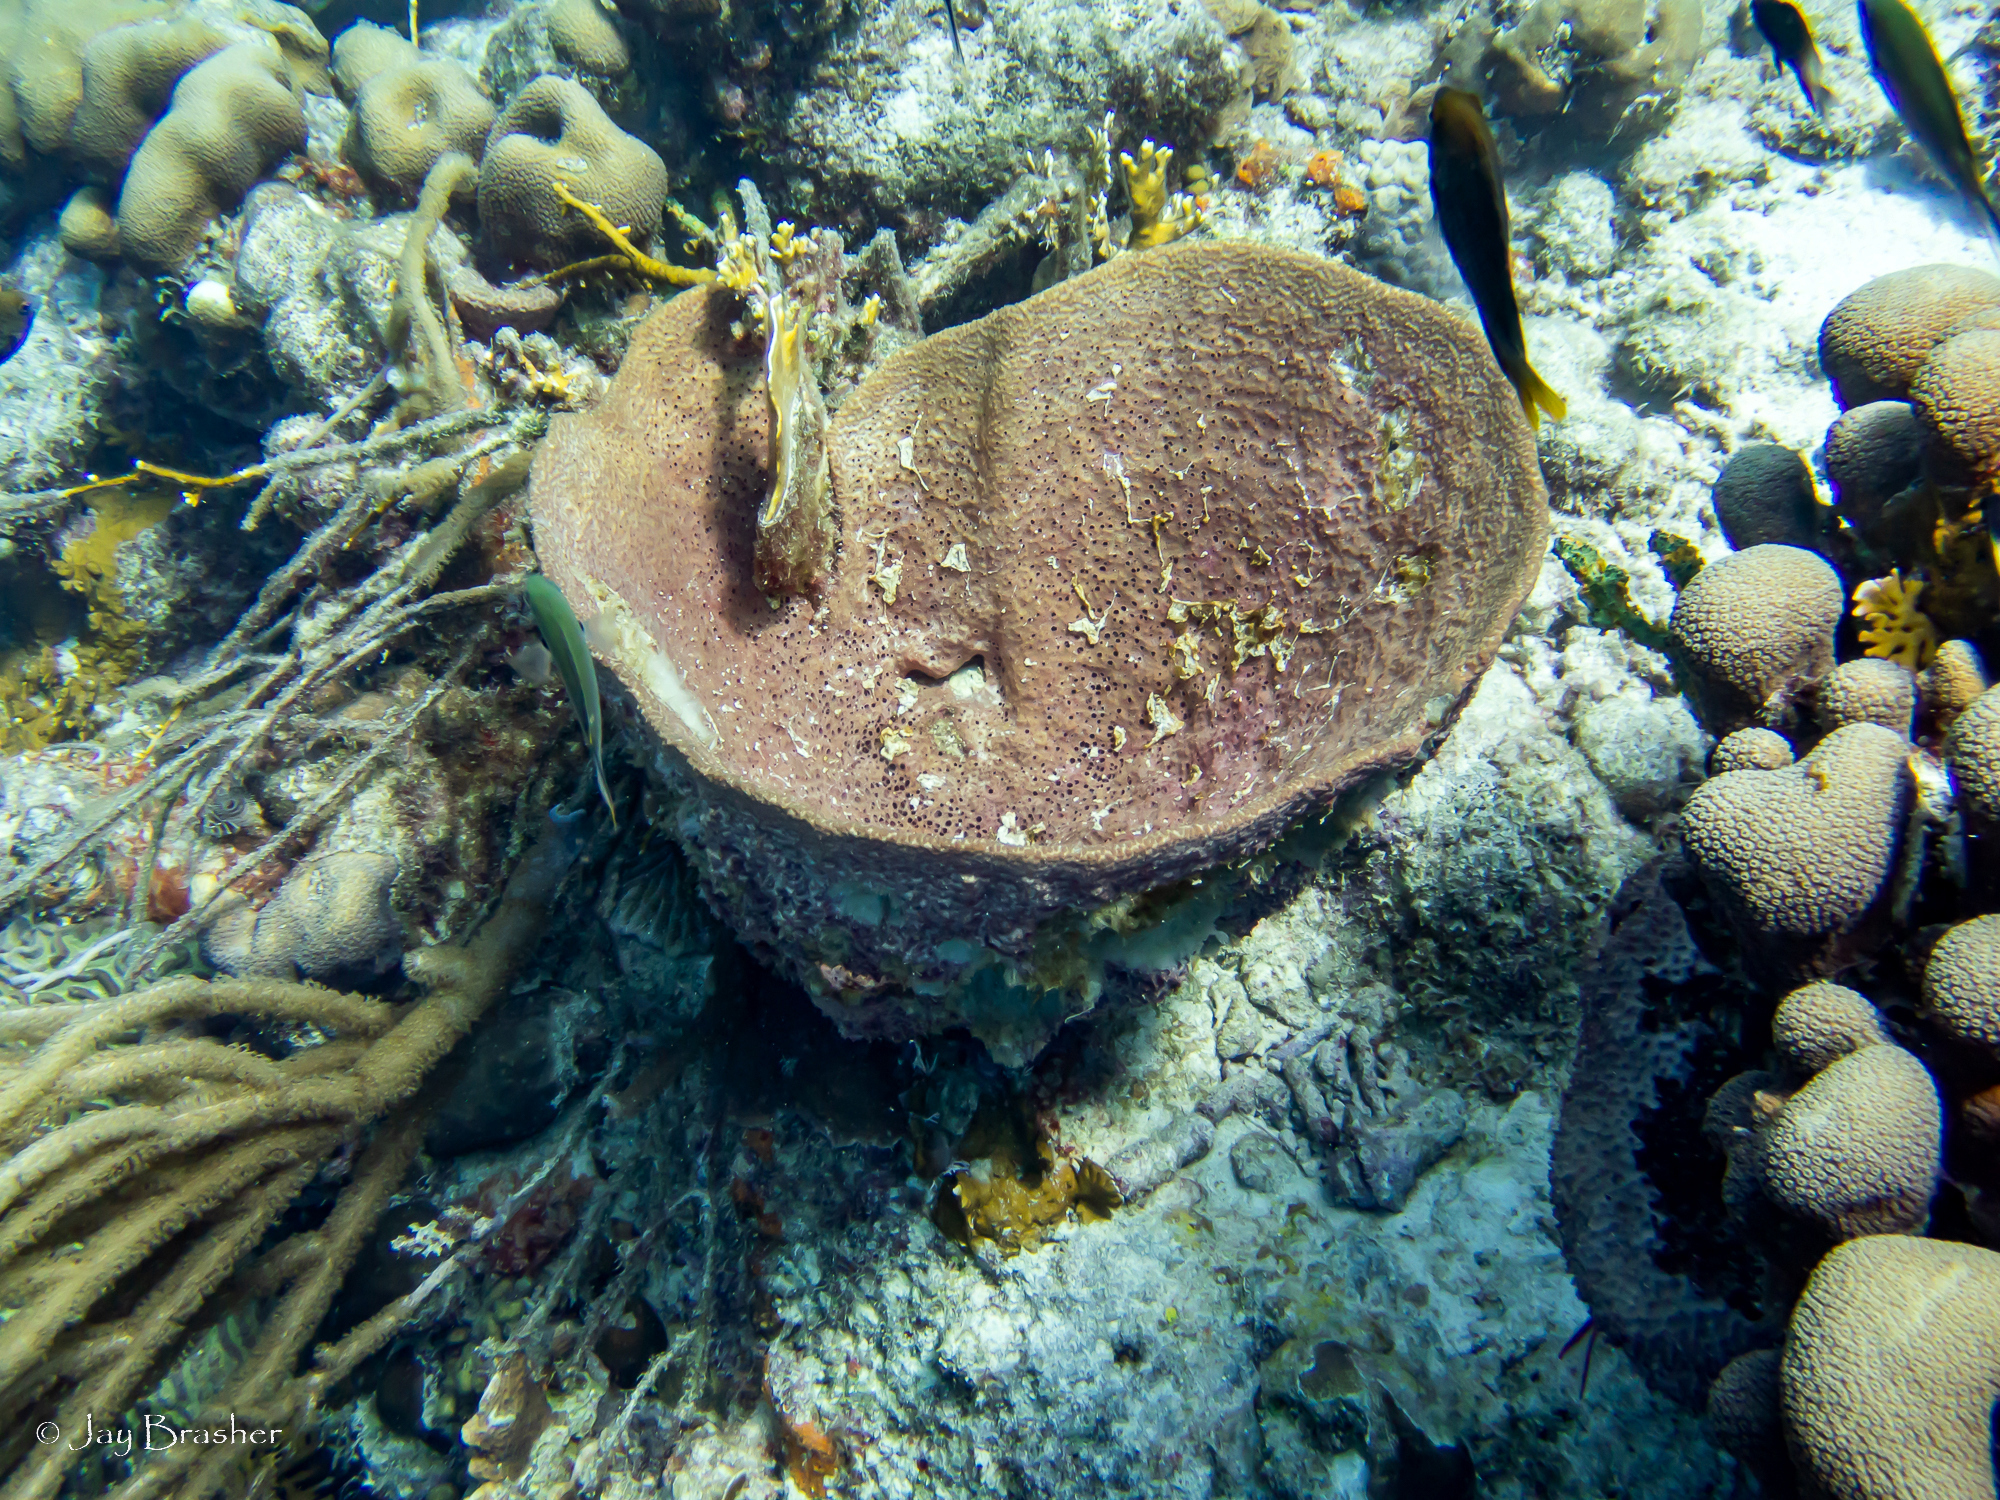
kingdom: Animalia
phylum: Porifera
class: Demospongiae
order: Dictyoceratida
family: Irciniidae
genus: Ircinia
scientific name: Ircinia campana
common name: Vase sponge
